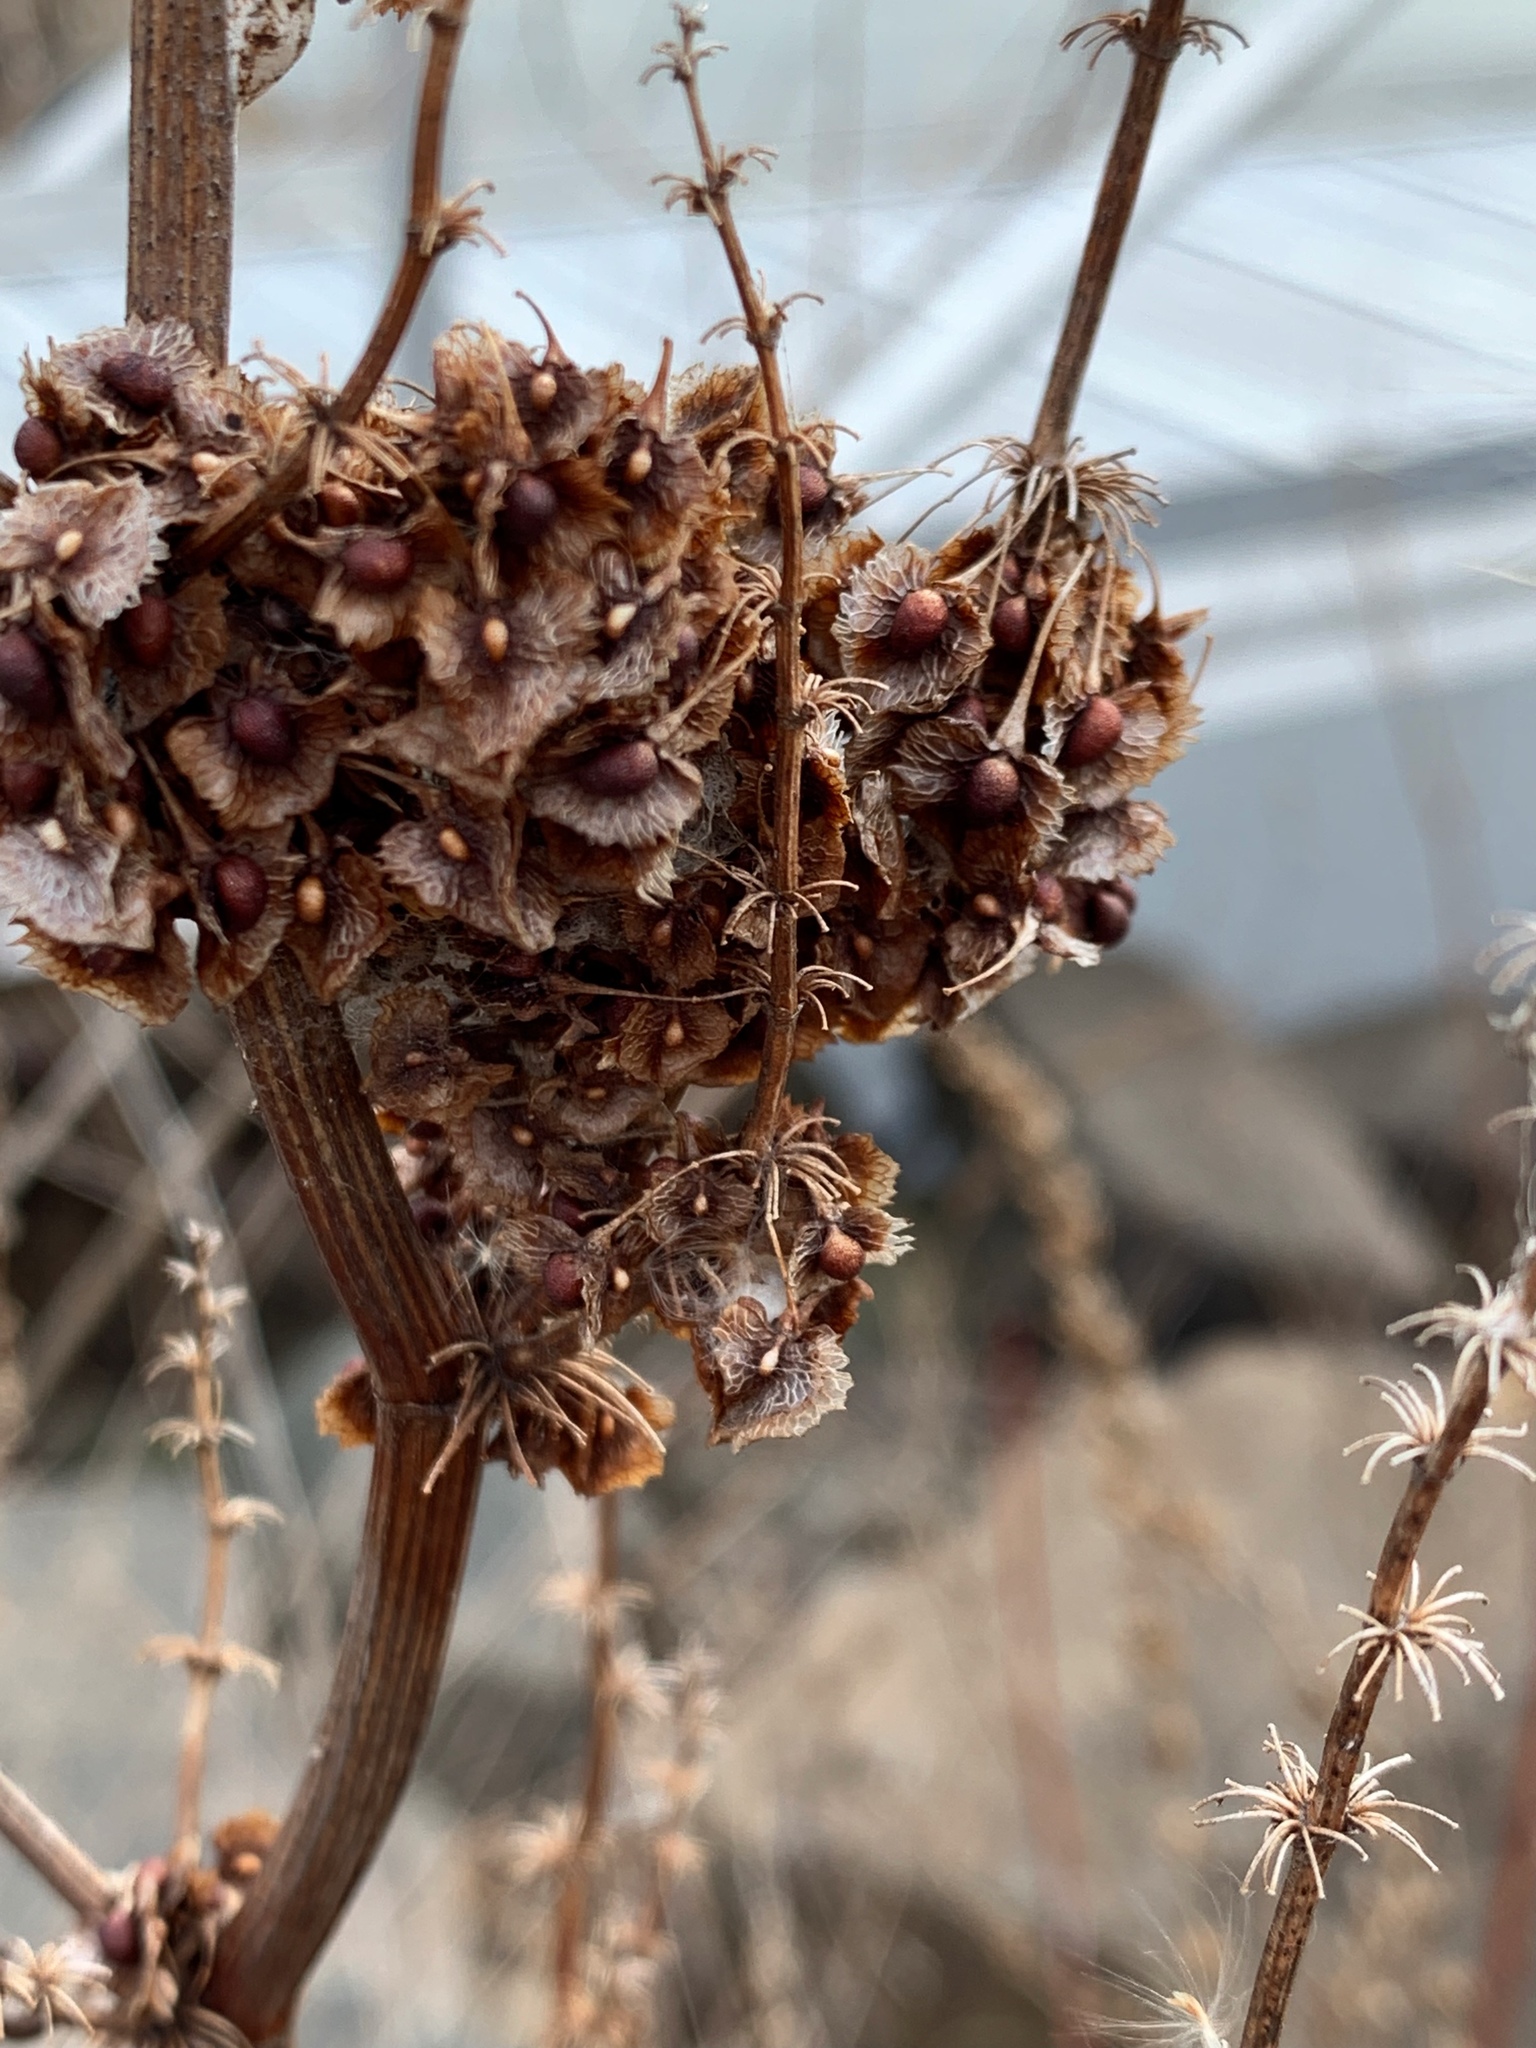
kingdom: Plantae
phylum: Tracheophyta
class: Magnoliopsida
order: Caryophyllales
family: Polygonaceae
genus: Rumex
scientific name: Rumex obtusifolius
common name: Bitter dock
